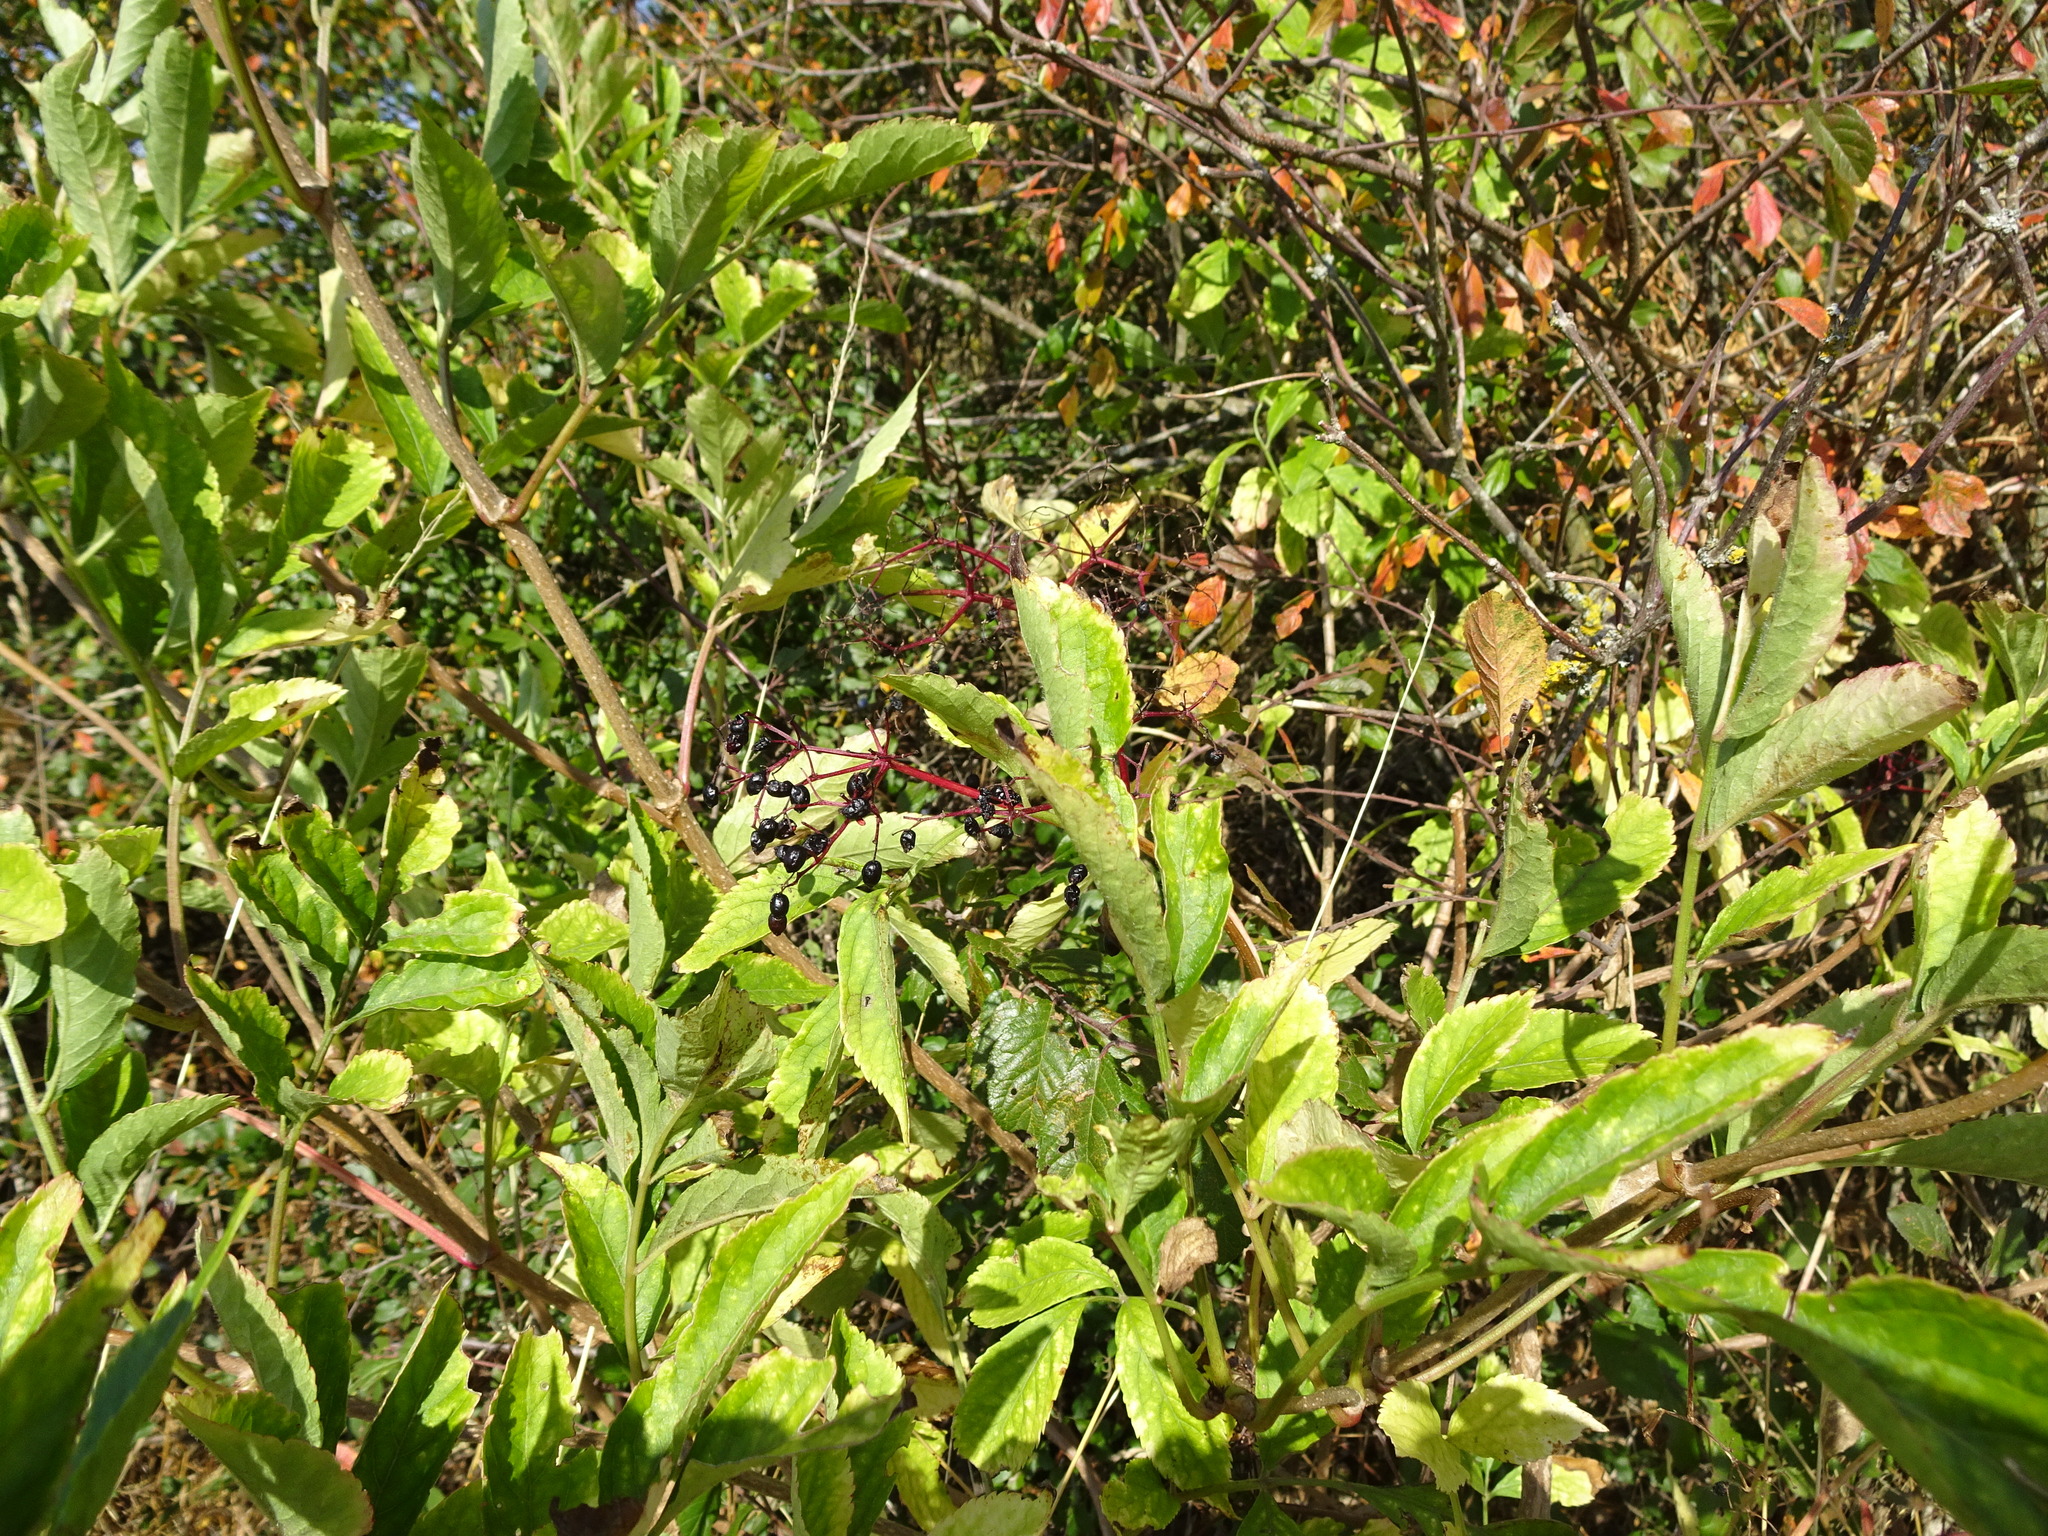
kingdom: Plantae
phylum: Tracheophyta
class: Magnoliopsida
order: Dipsacales
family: Viburnaceae
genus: Sambucus
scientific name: Sambucus nigra
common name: Elder
